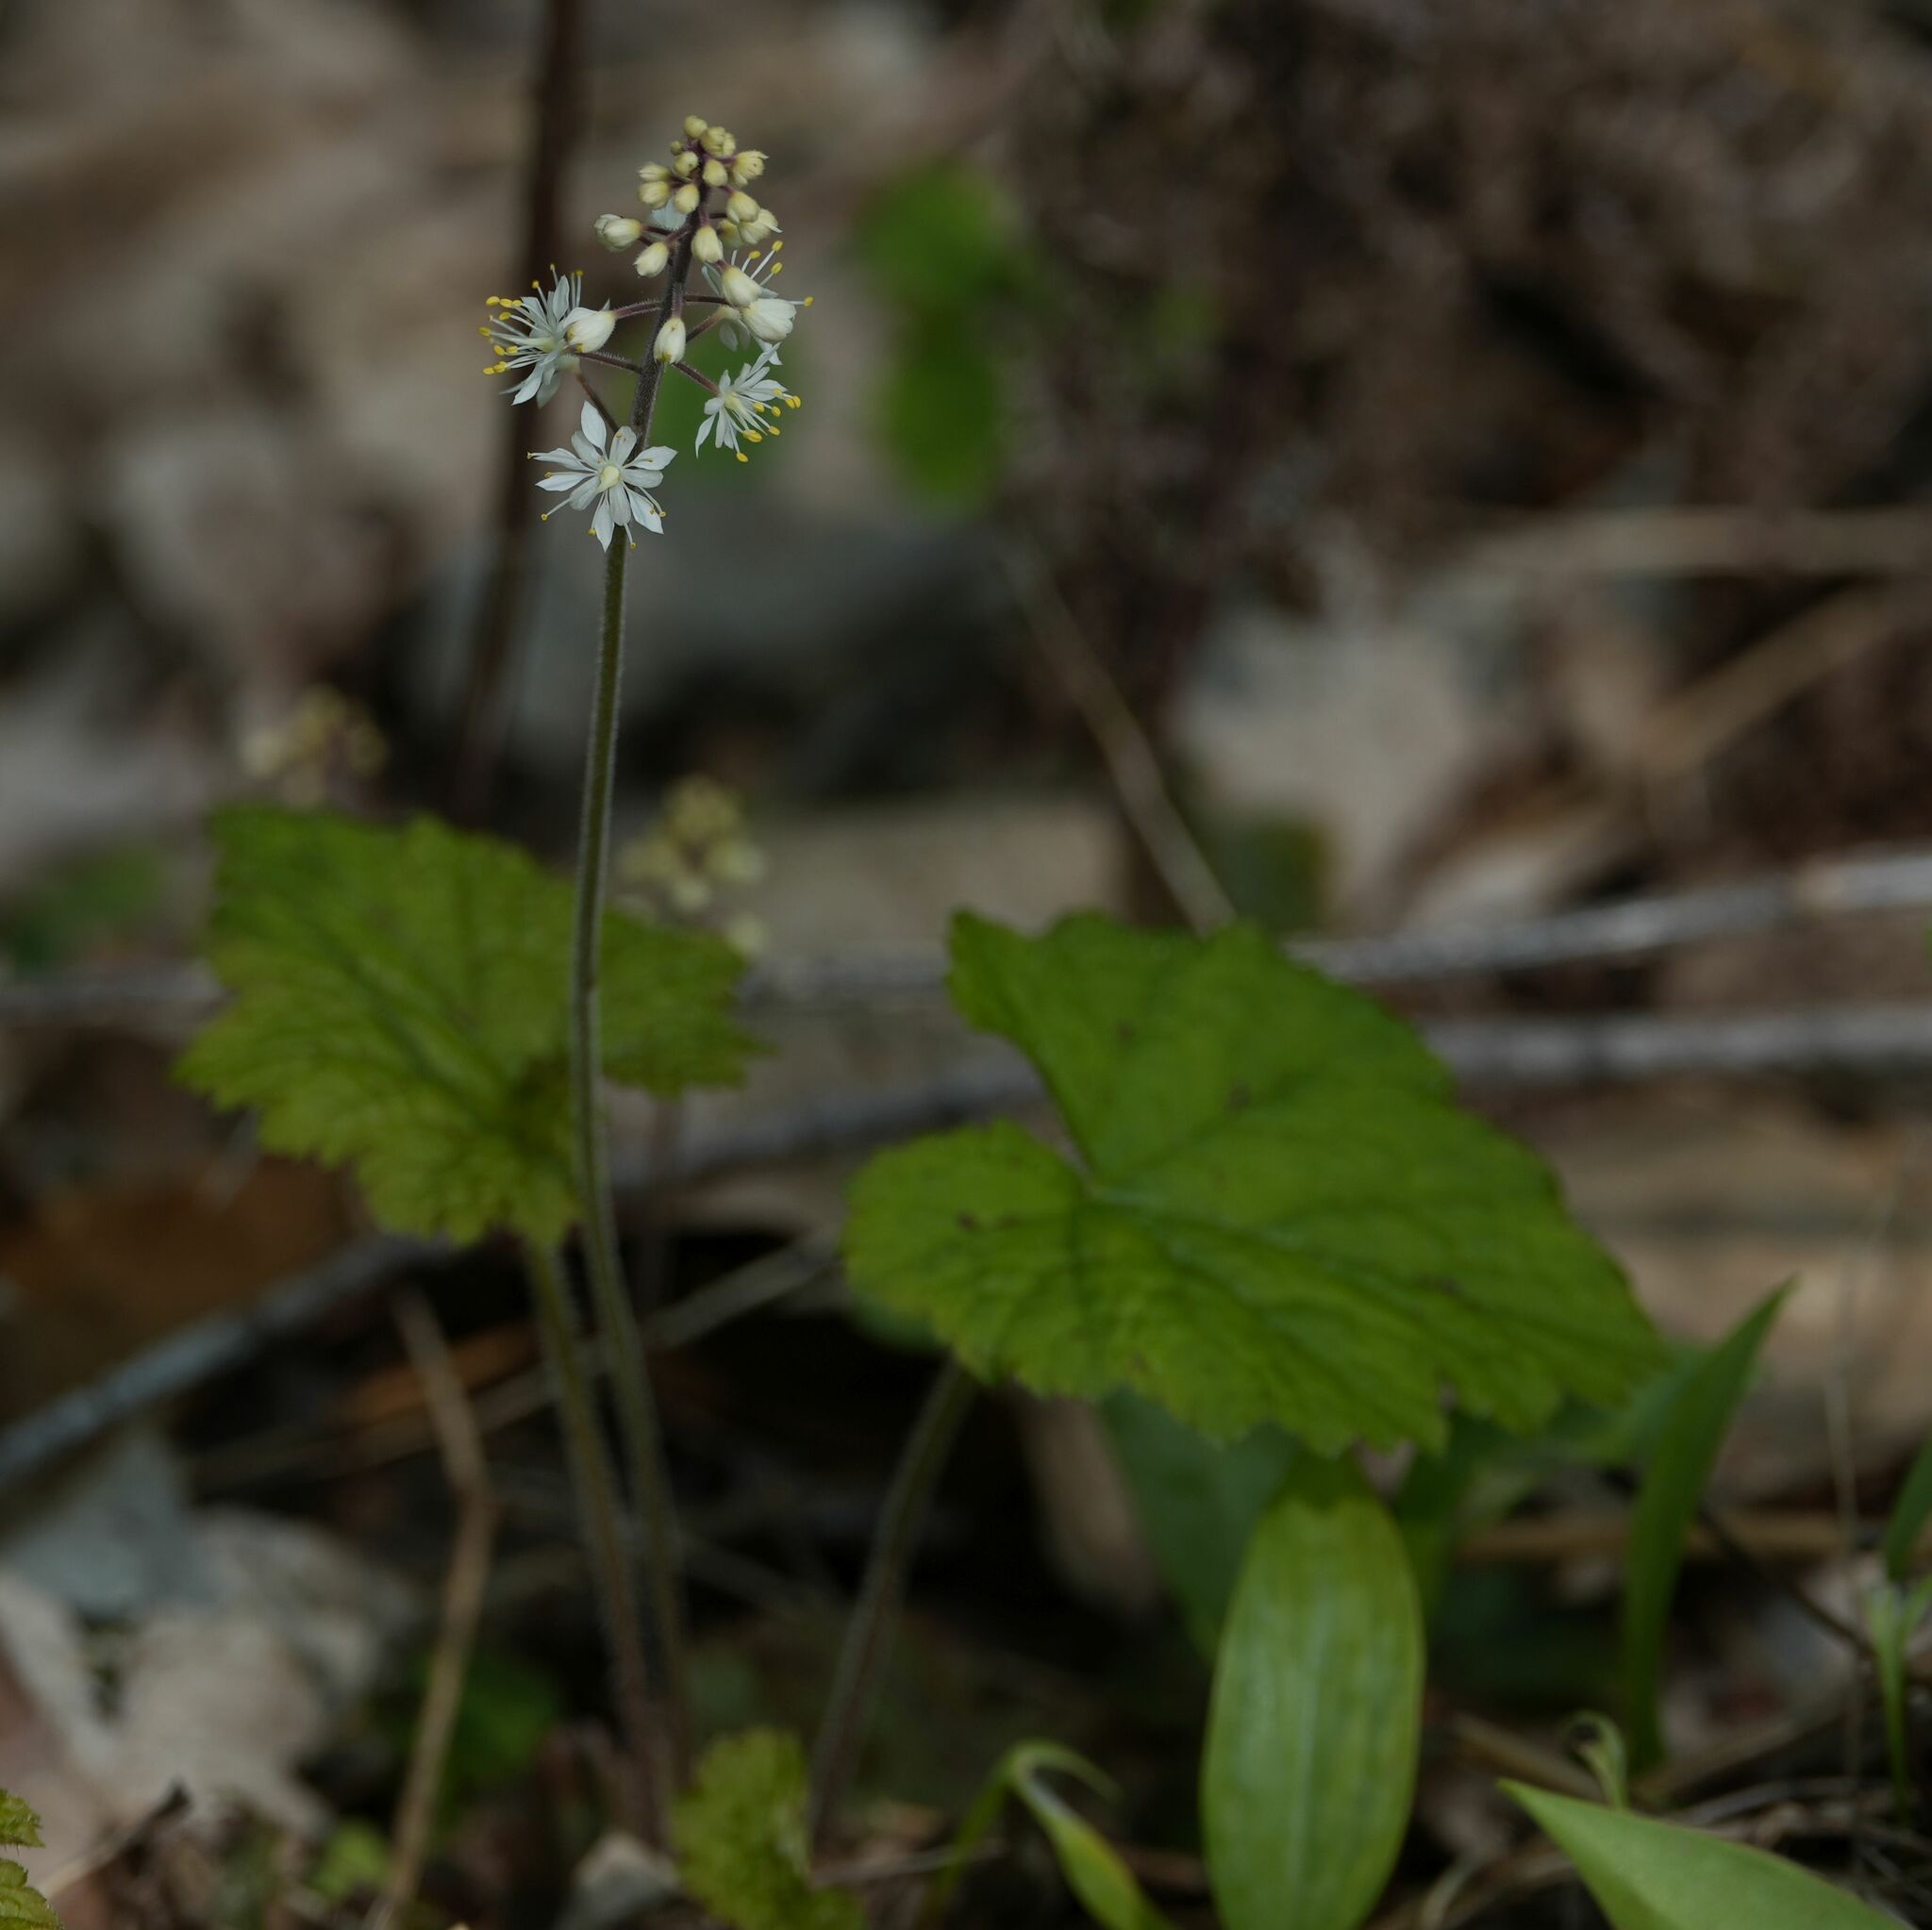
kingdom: Plantae
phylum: Tracheophyta
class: Magnoliopsida
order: Saxifragales
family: Saxifragaceae
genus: Tiarella
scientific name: Tiarella stolonifera
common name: Stoloniferous foamflower
